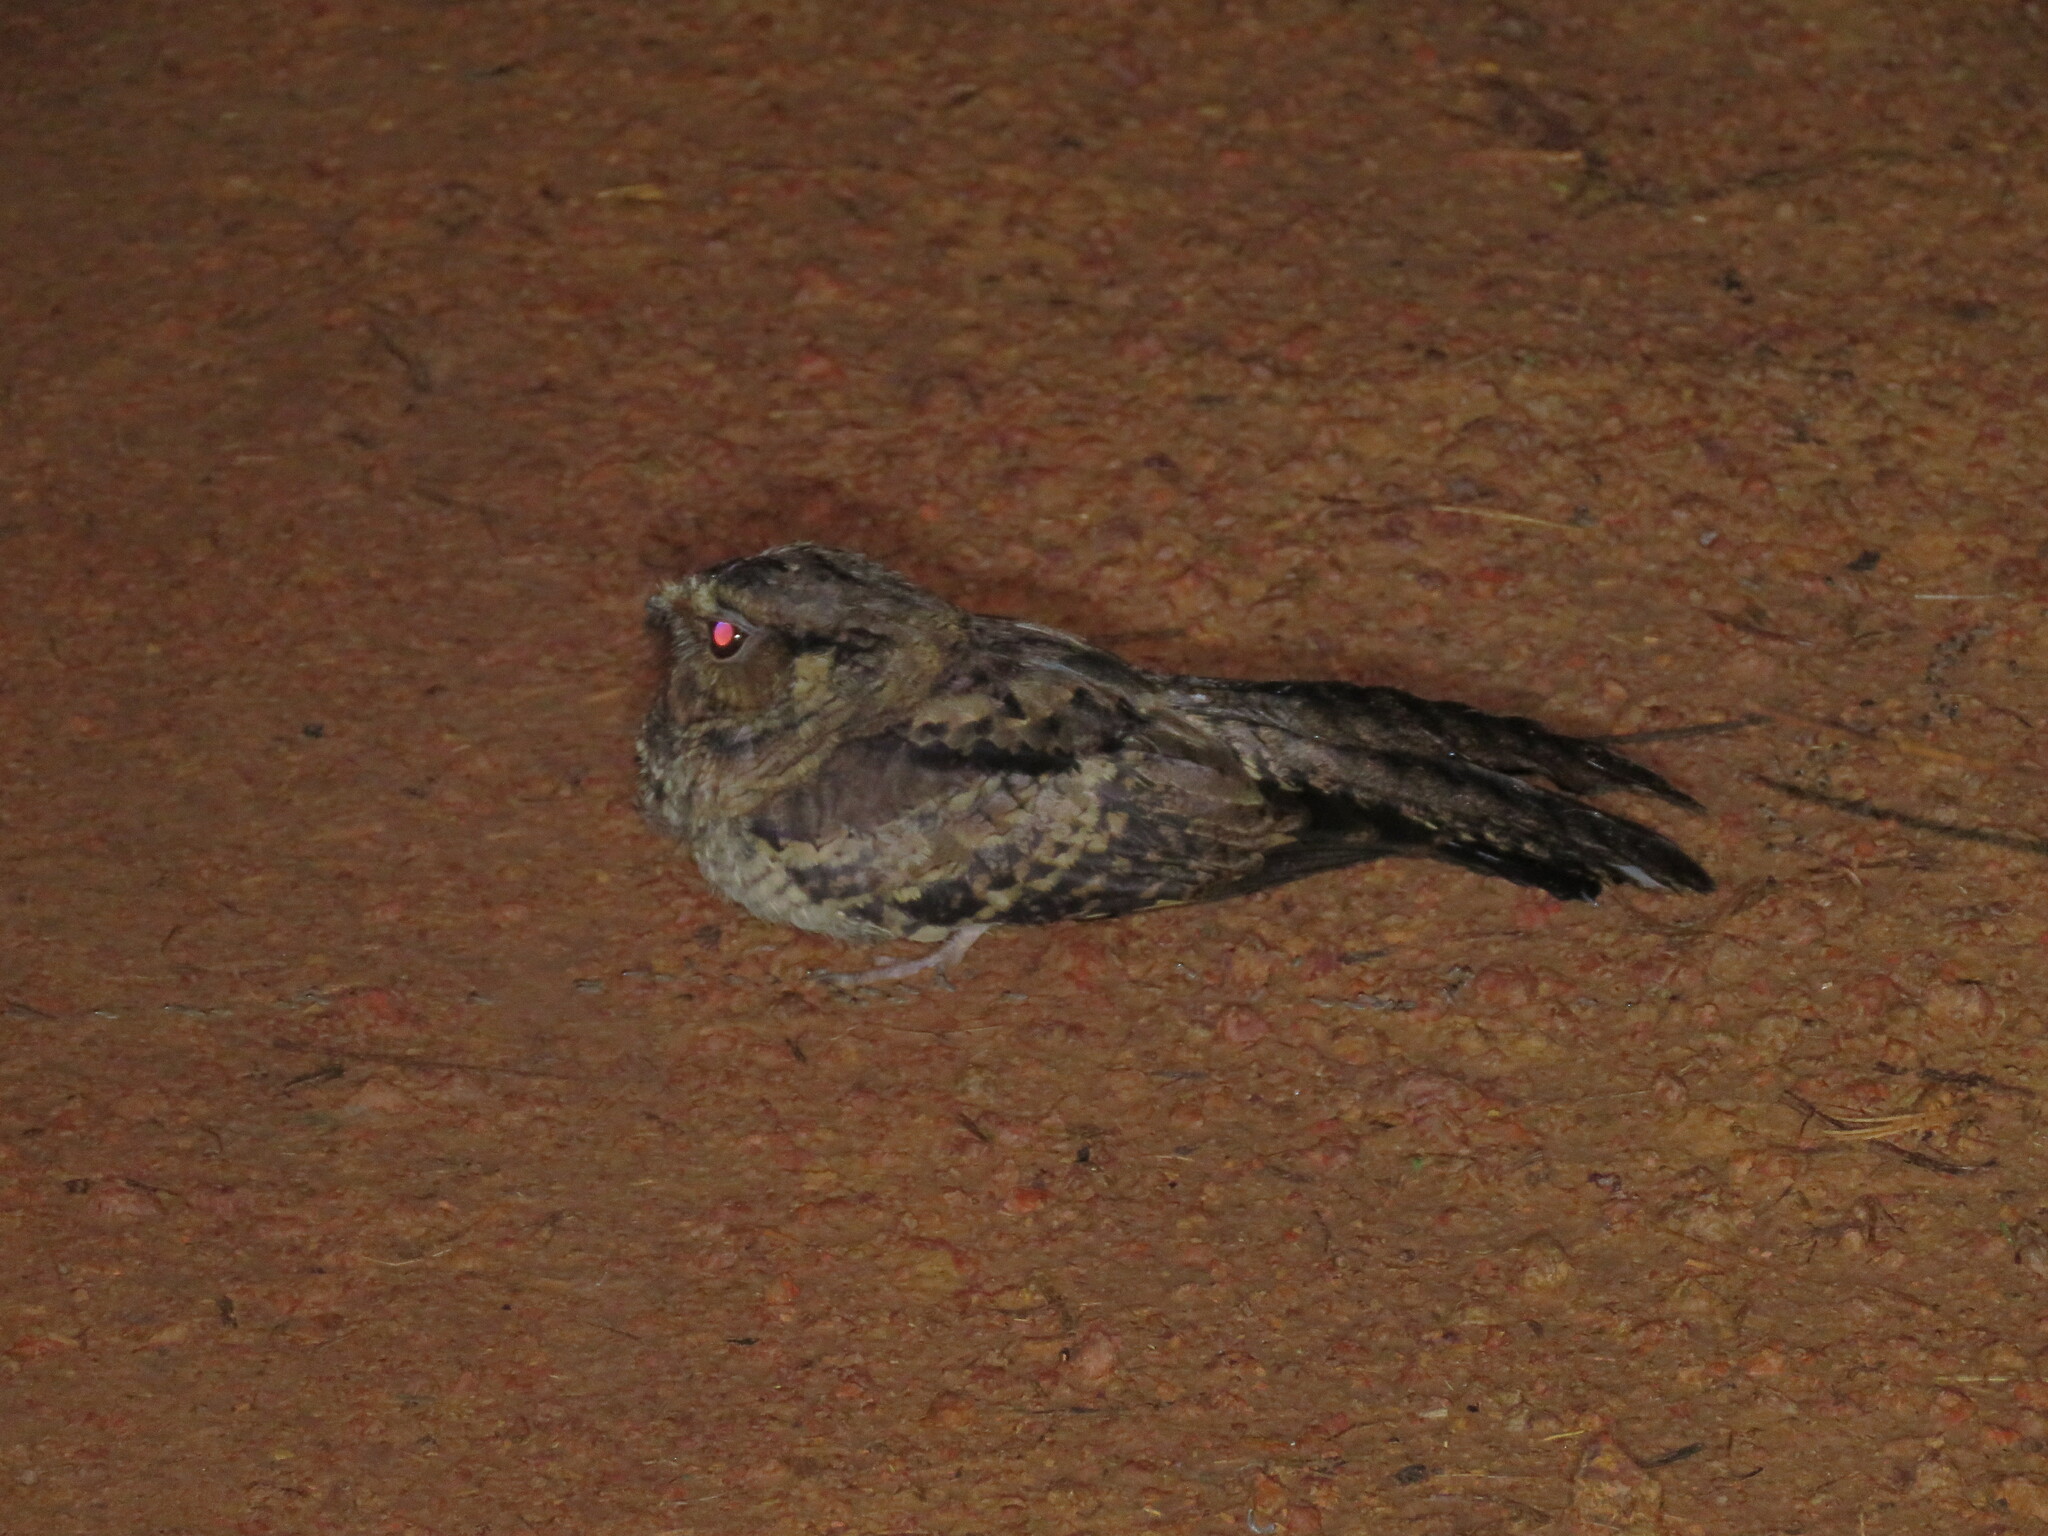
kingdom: Animalia
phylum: Chordata
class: Aves
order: Caprimulgiformes
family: Caprimulgidae
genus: Nyctidromus
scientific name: Nyctidromus albicollis
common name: Pauraque
